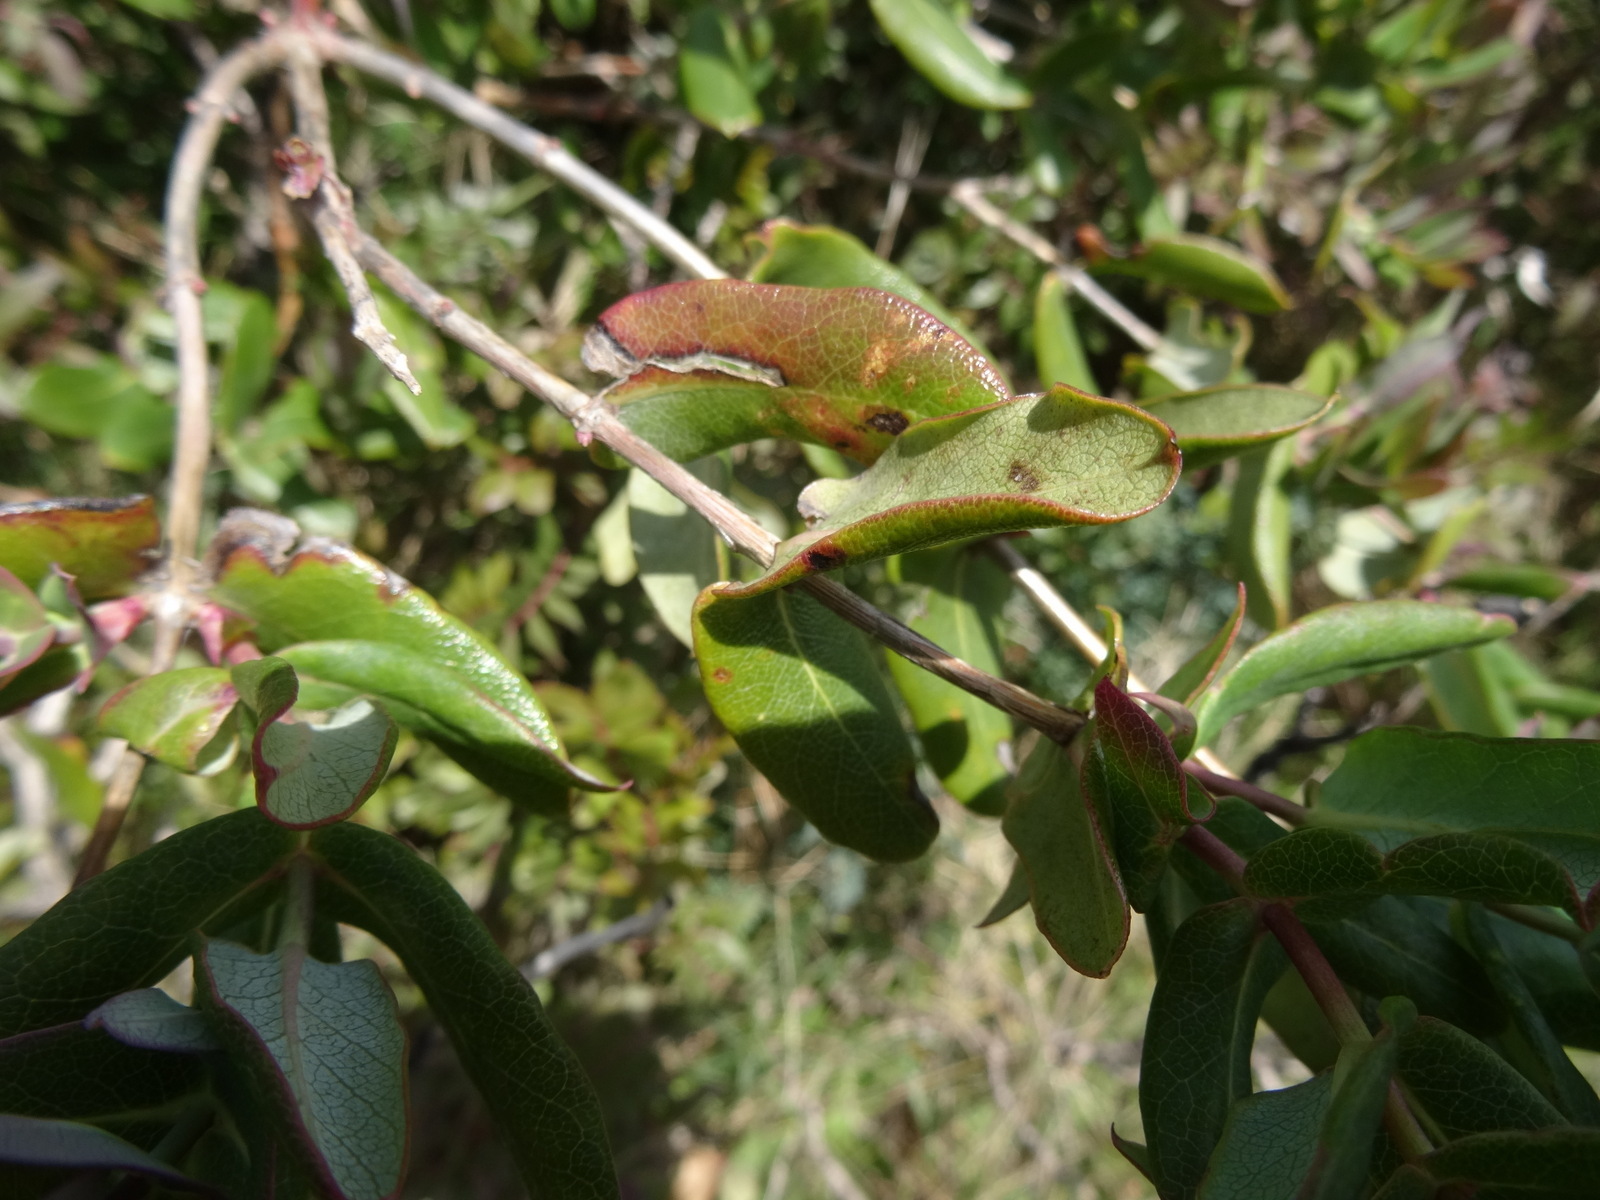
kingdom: Plantae
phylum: Tracheophyta
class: Magnoliopsida
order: Dipsacales
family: Caprifoliaceae
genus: Lonicera
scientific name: Lonicera implexa
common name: Minorca honeysuckle
